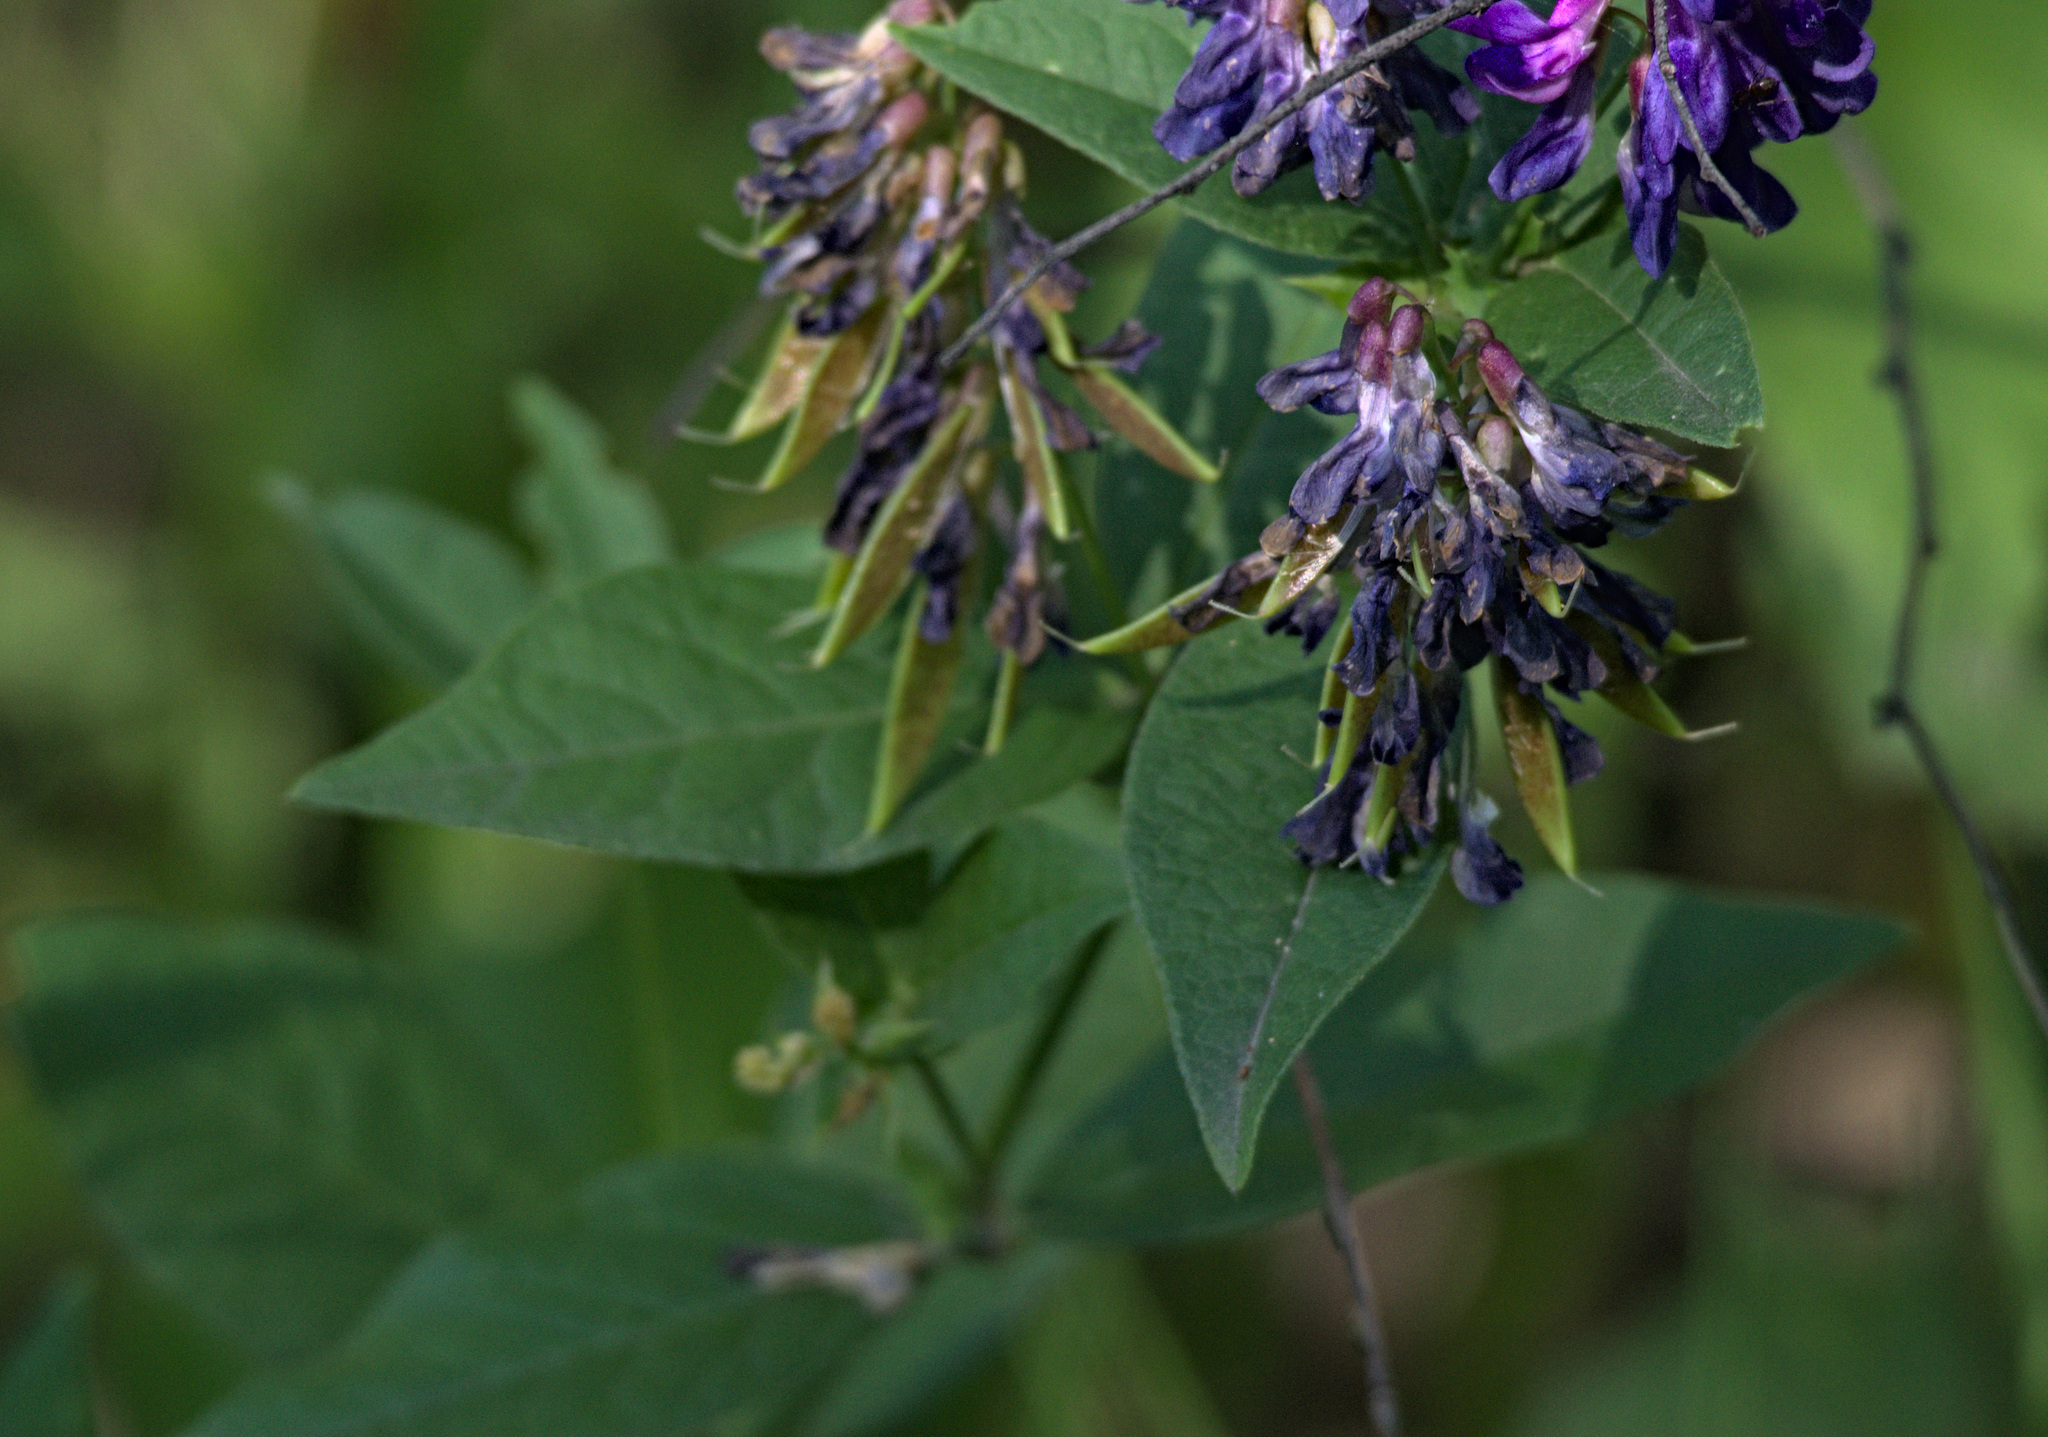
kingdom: Plantae
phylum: Tracheophyta
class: Magnoliopsida
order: Fabales
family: Fabaceae
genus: Vicia
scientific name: Vicia unijuga
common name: Two-leaf vetch
